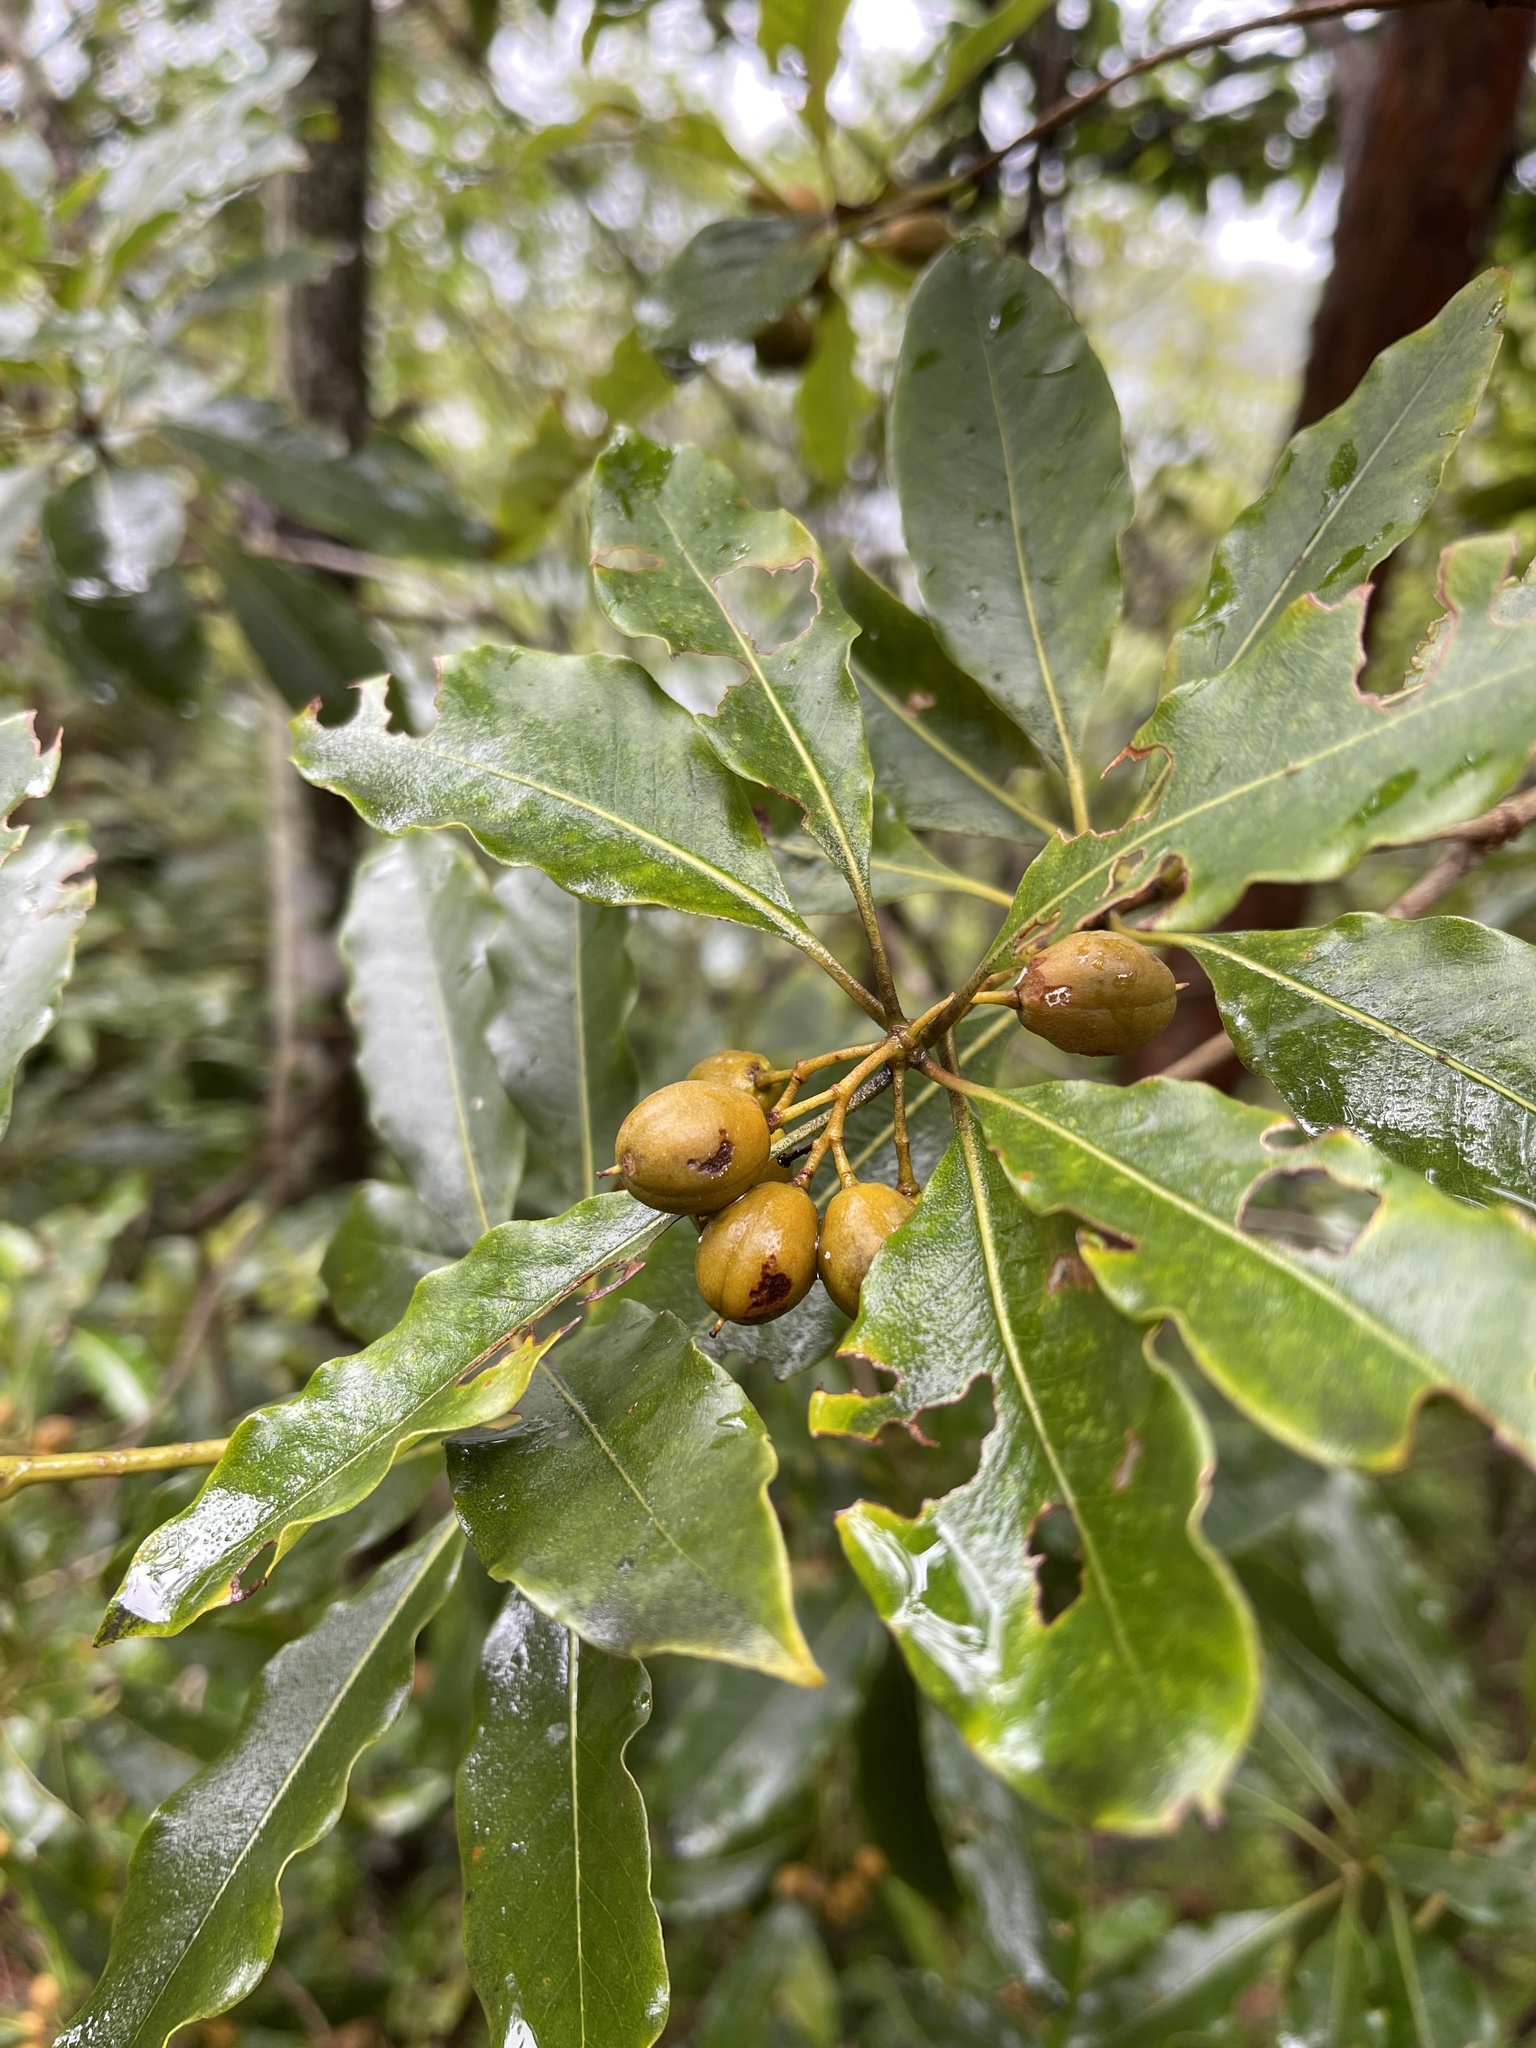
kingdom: Plantae
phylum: Tracheophyta
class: Magnoliopsida
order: Apiales
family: Pittosporaceae
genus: Pittosporum
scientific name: Pittosporum undulatum
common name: Australian cheesewood
